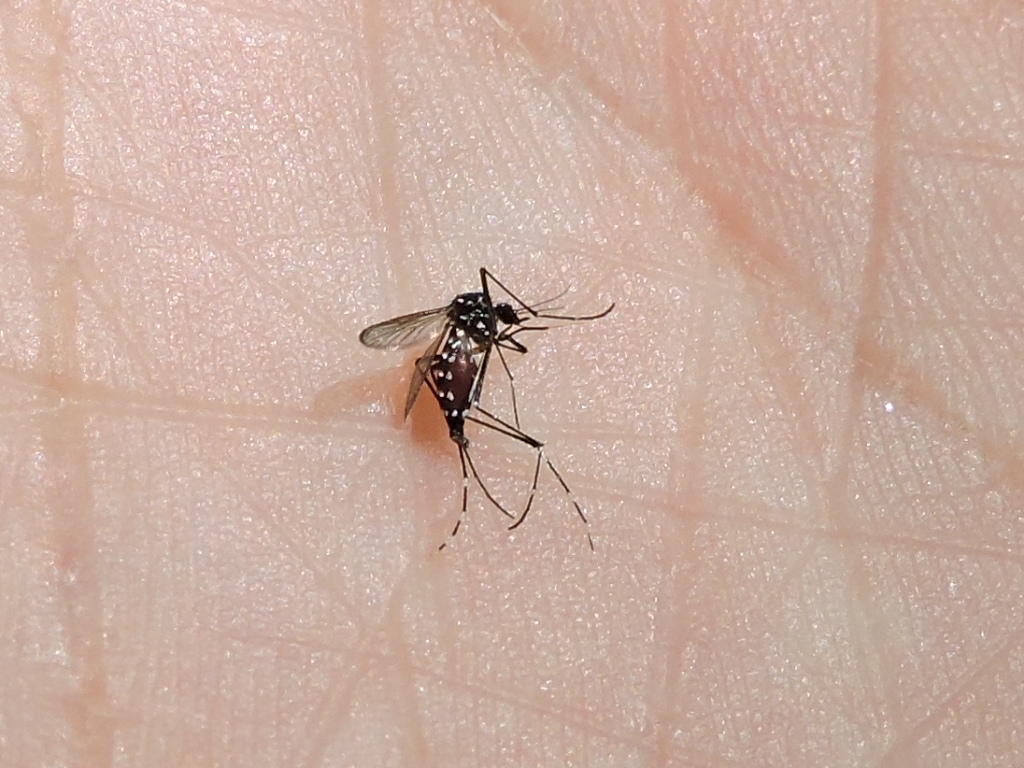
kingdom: Animalia
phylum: Arthropoda
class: Insecta
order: Diptera
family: Culicidae
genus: Aedes
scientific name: Aedes albopictus
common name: Tiger mosquito
